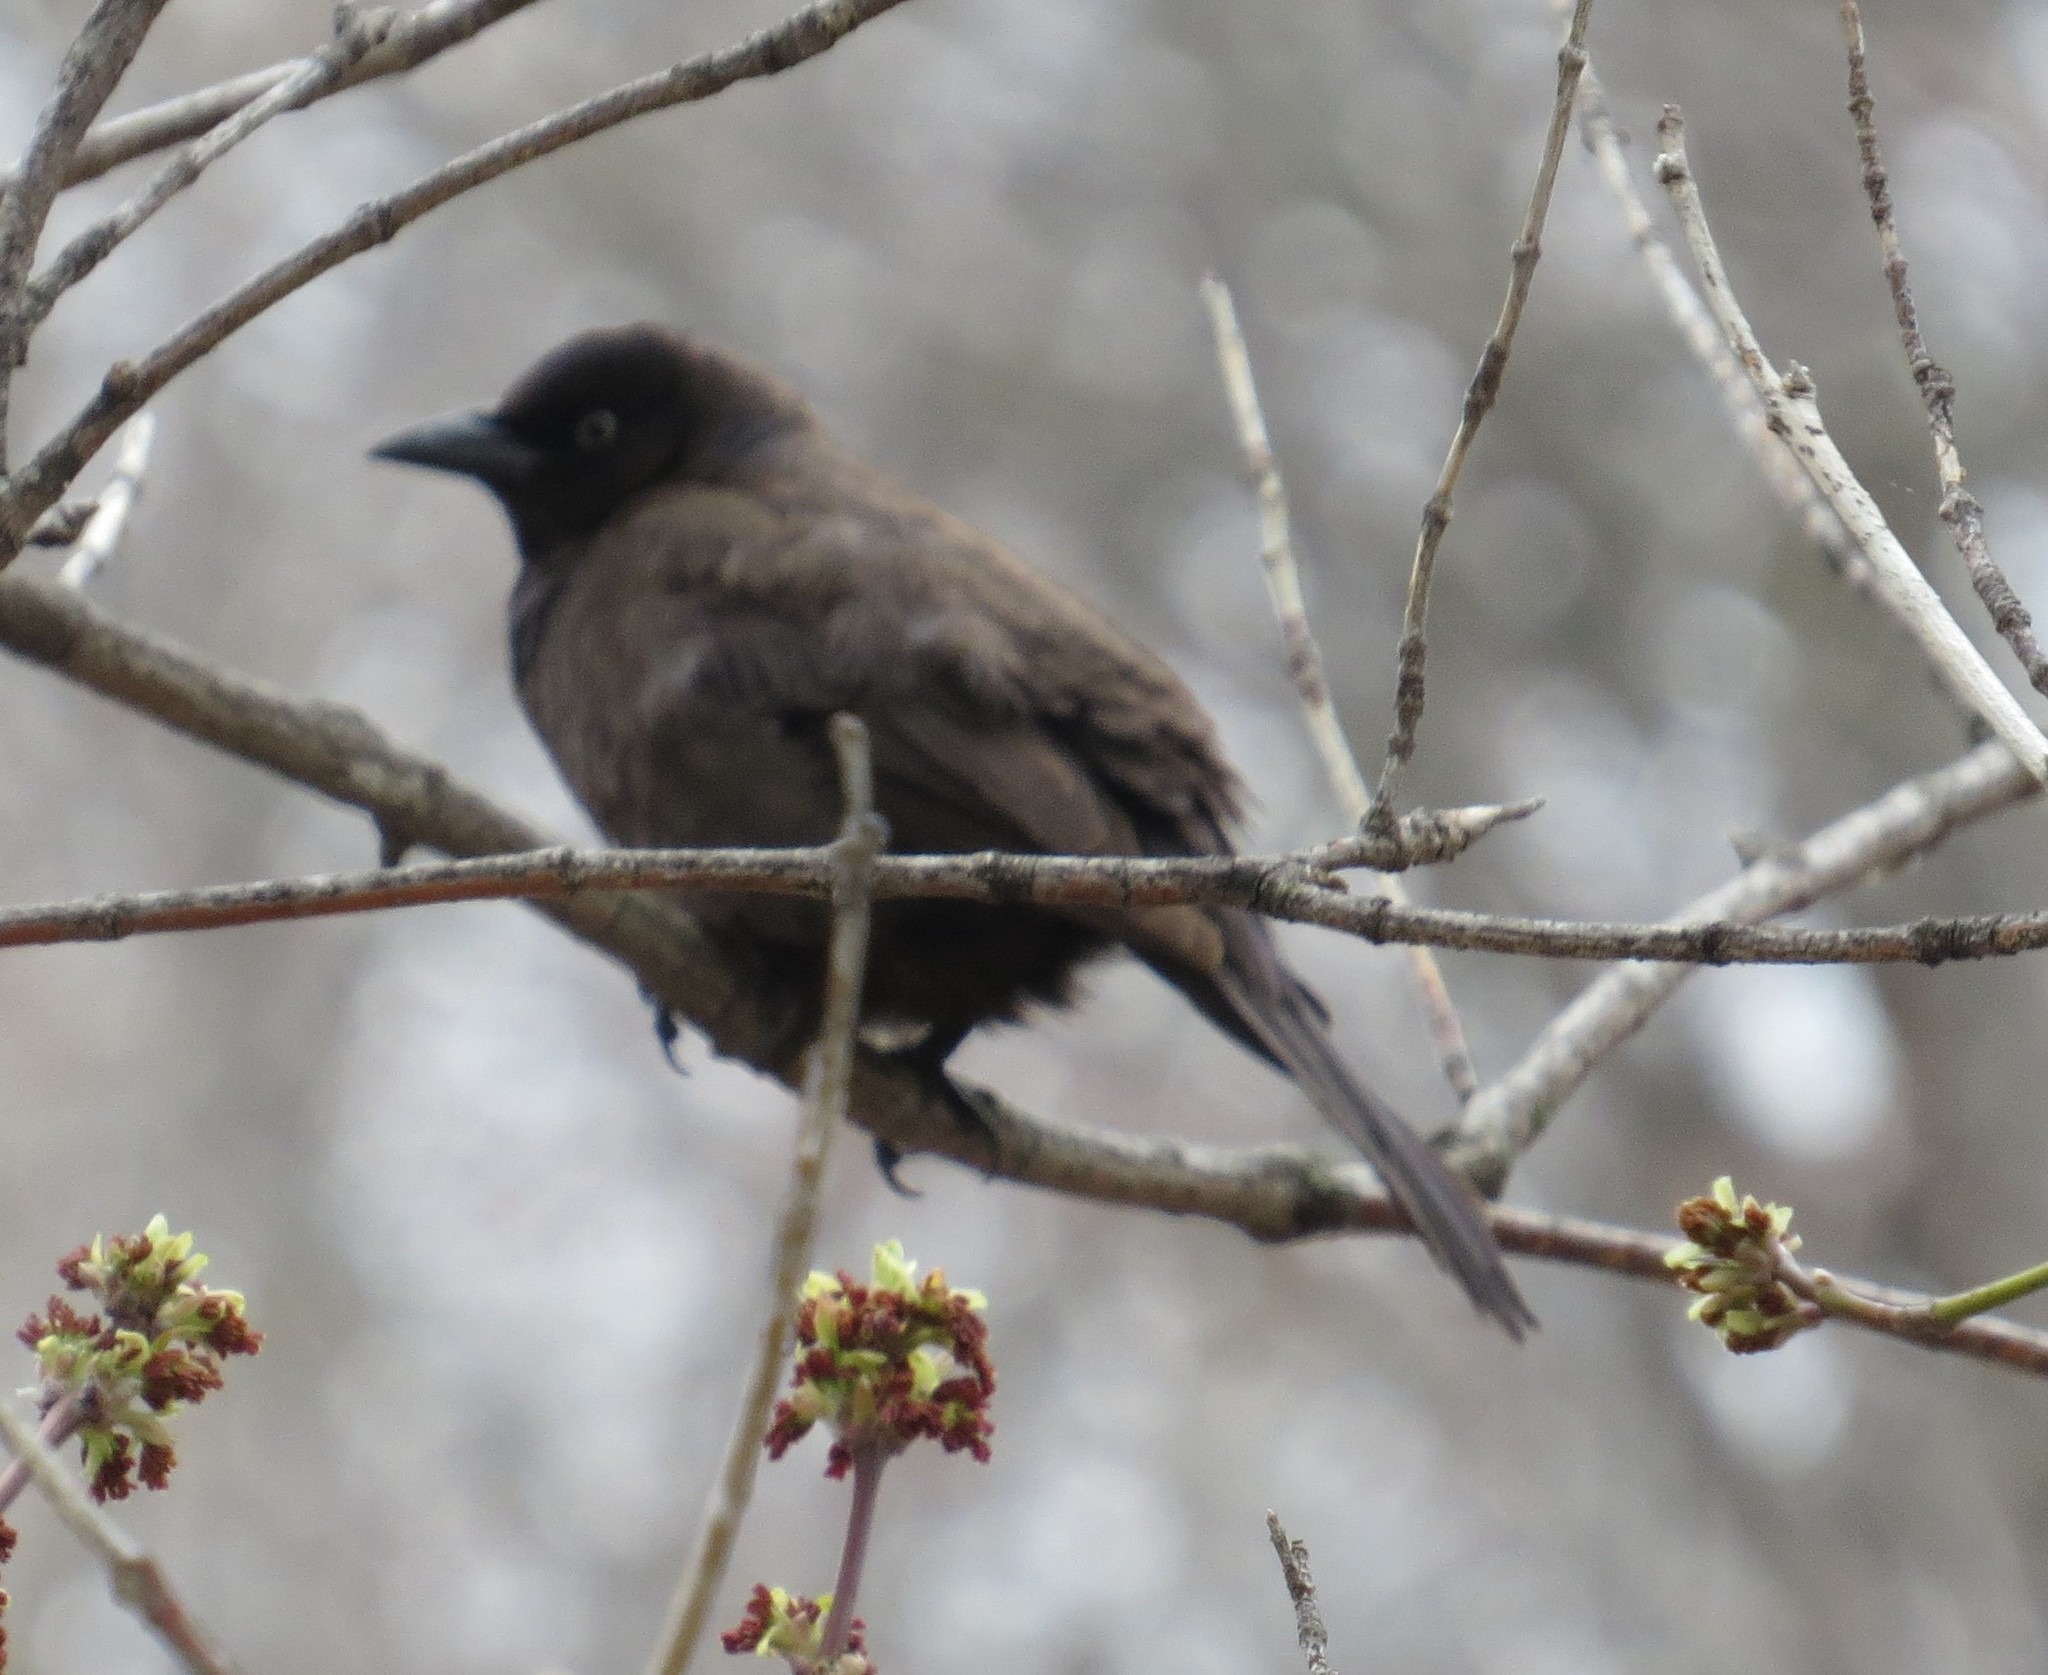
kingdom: Animalia
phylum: Chordata
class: Aves
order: Passeriformes
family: Icteridae
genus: Quiscalus
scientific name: Quiscalus quiscula
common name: Common grackle
